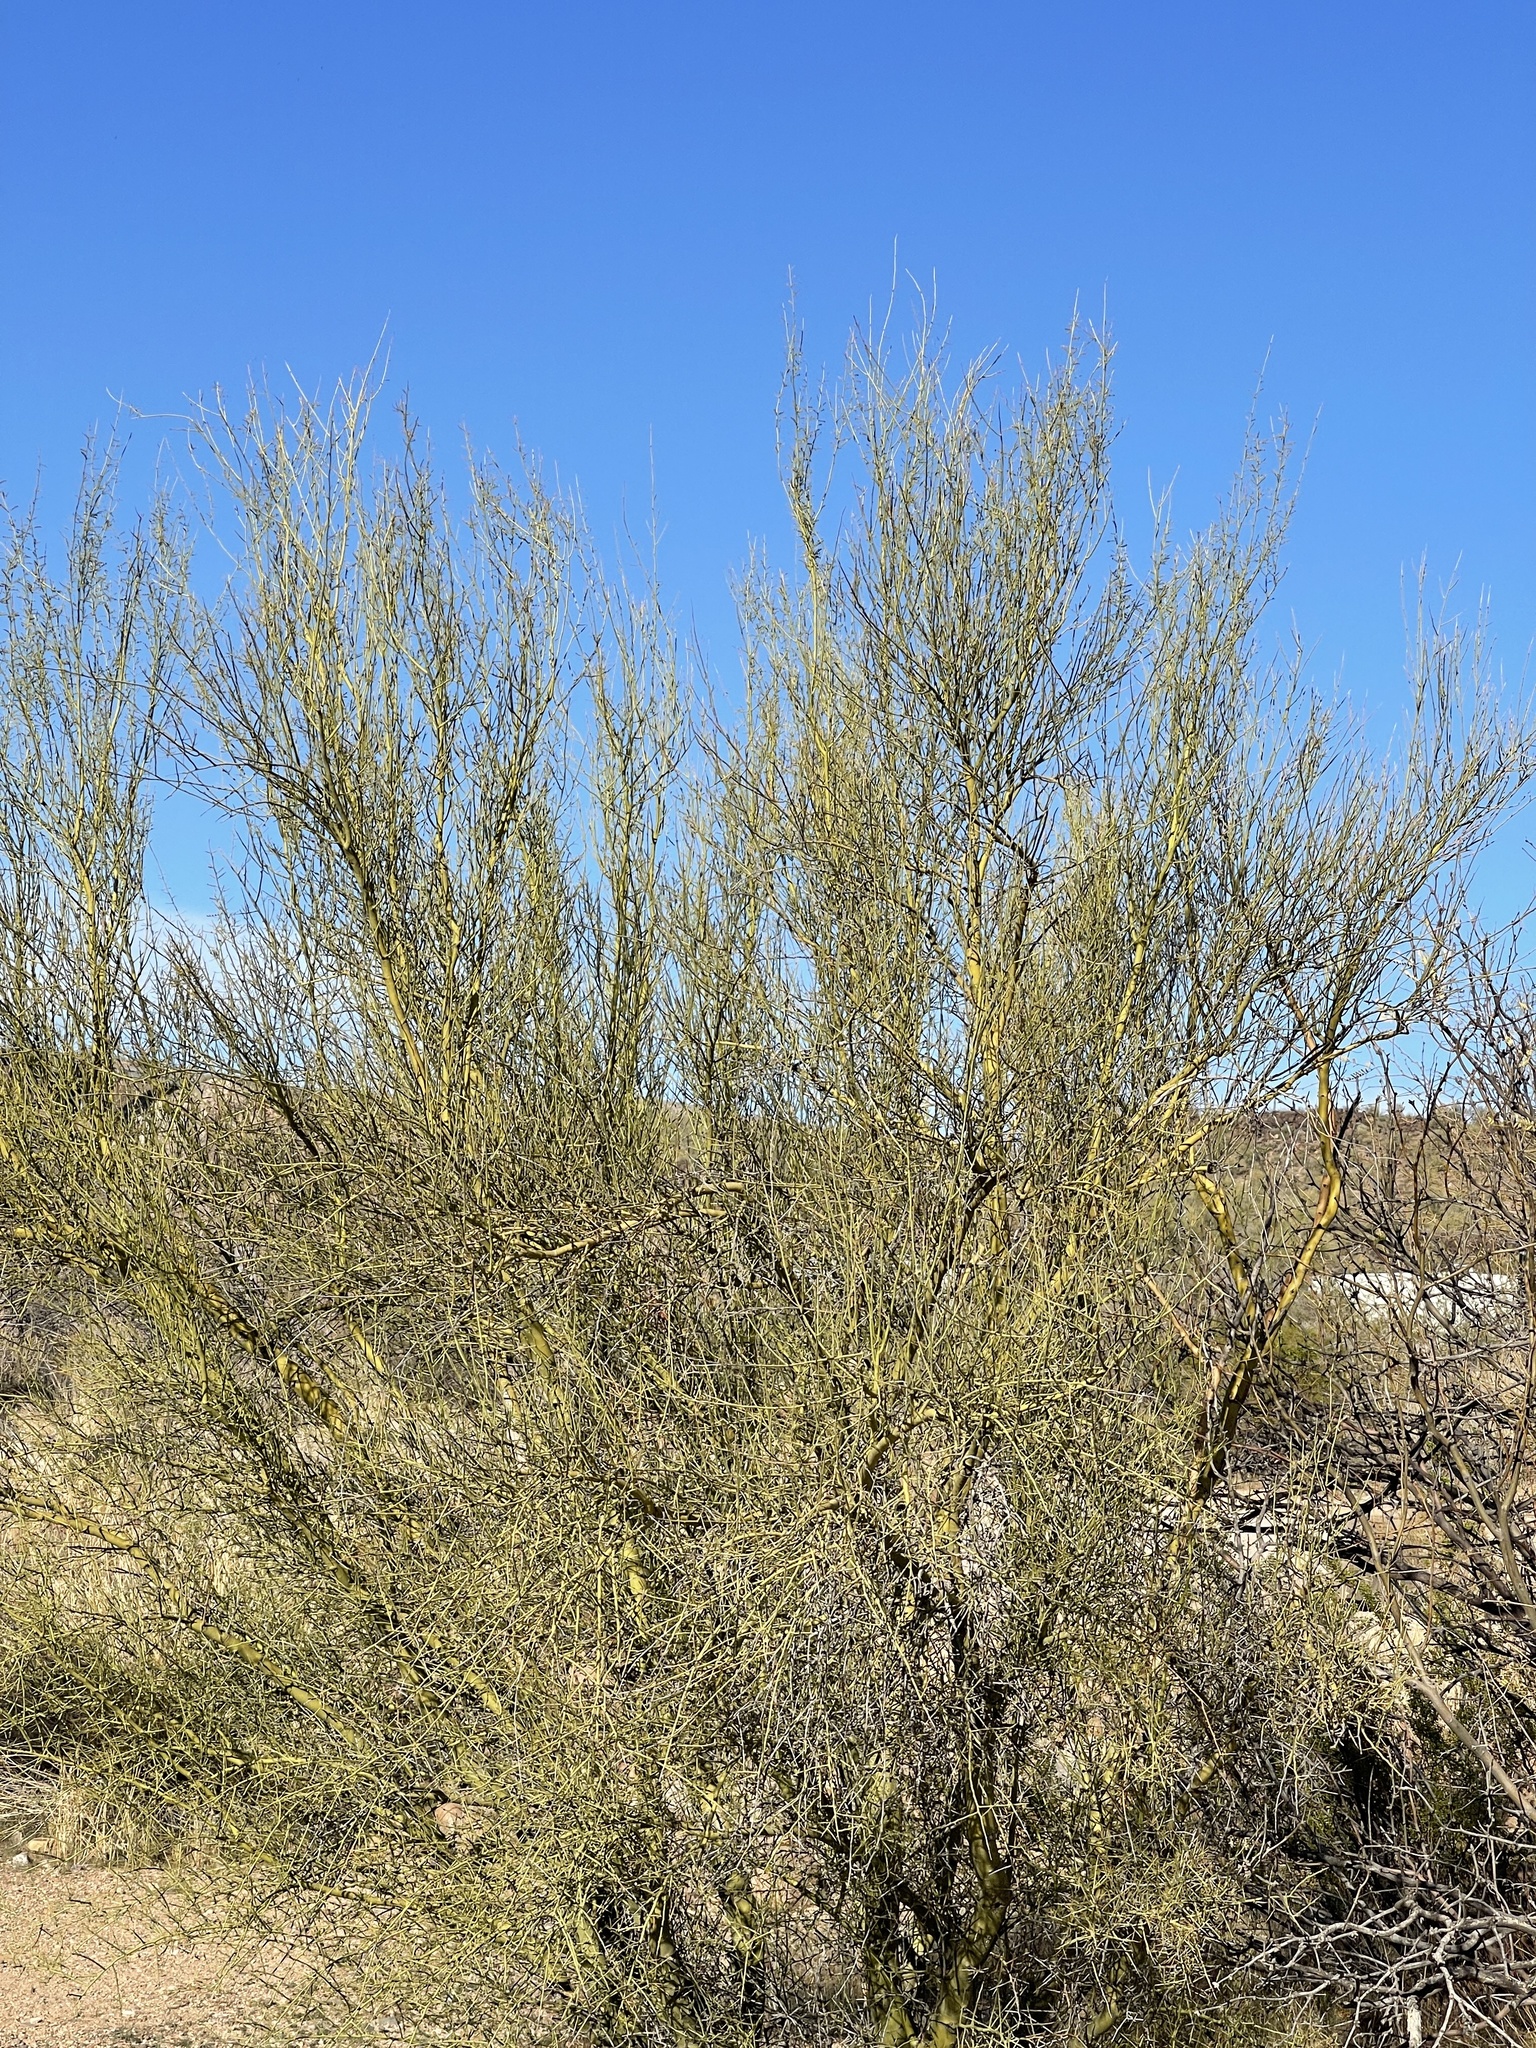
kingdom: Plantae
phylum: Tracheophyta
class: Magnoliopsida
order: Fabales
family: Fabaceae
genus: Parkinsonia
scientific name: Parkinsonia microphylla
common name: Yellow paloverde
